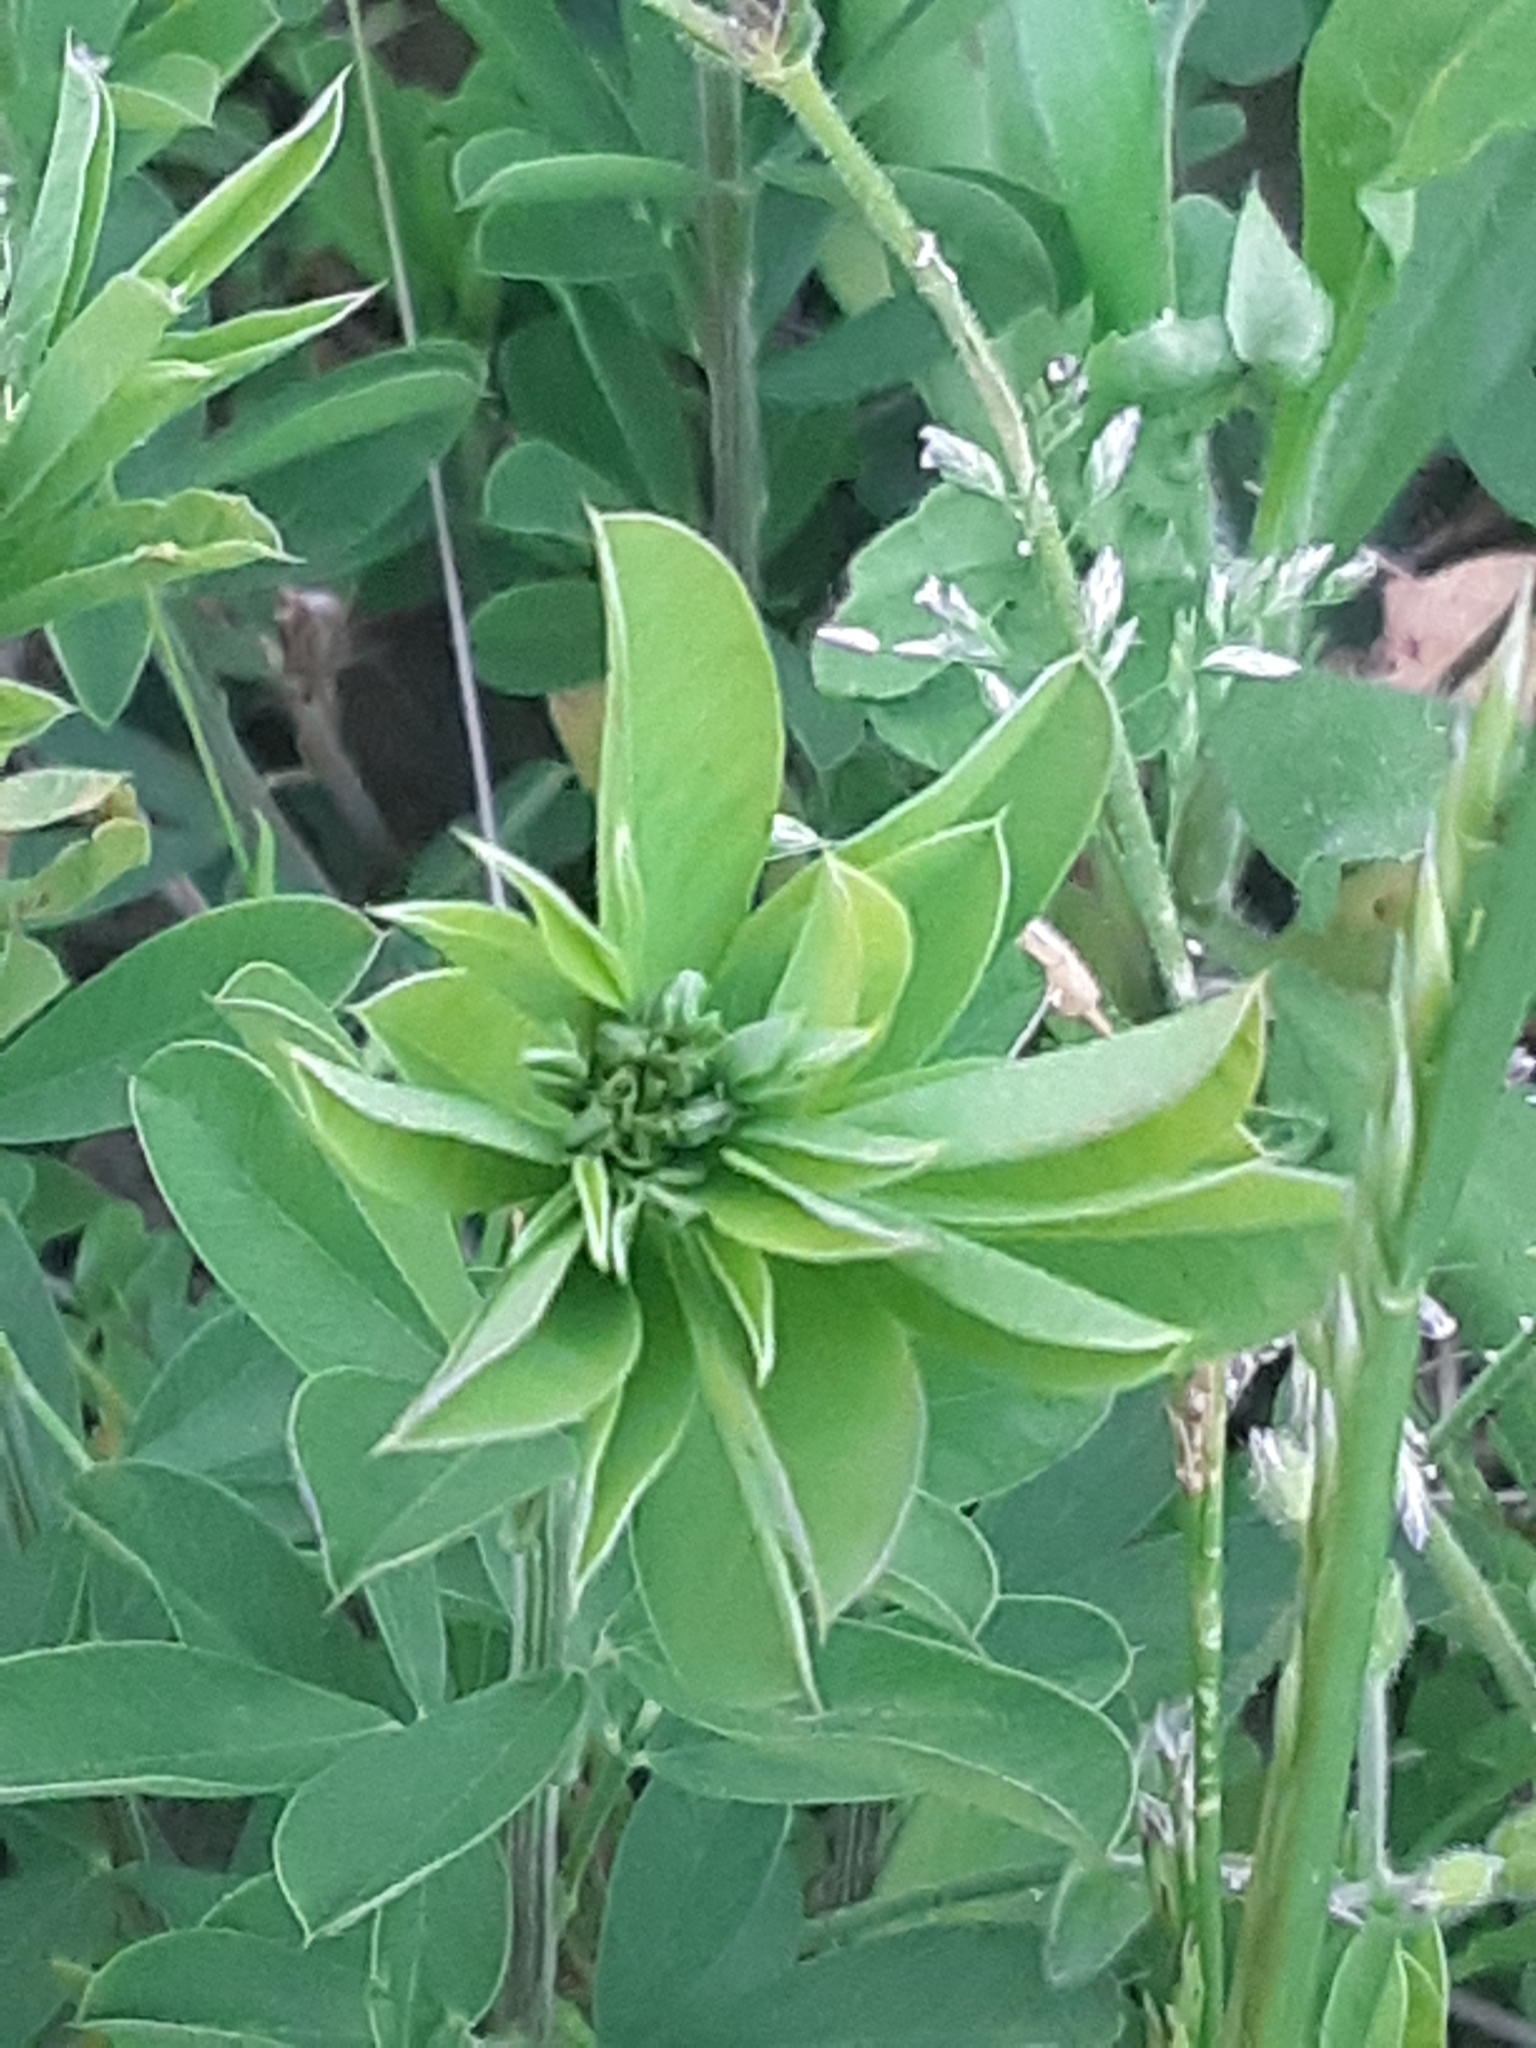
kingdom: Plantae
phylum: Tracheophyta
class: Magnoliopsida
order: Fabales
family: Fabaceae
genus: Lespedeza
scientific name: Lespedeza cuneata
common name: Chinese bush-clover
